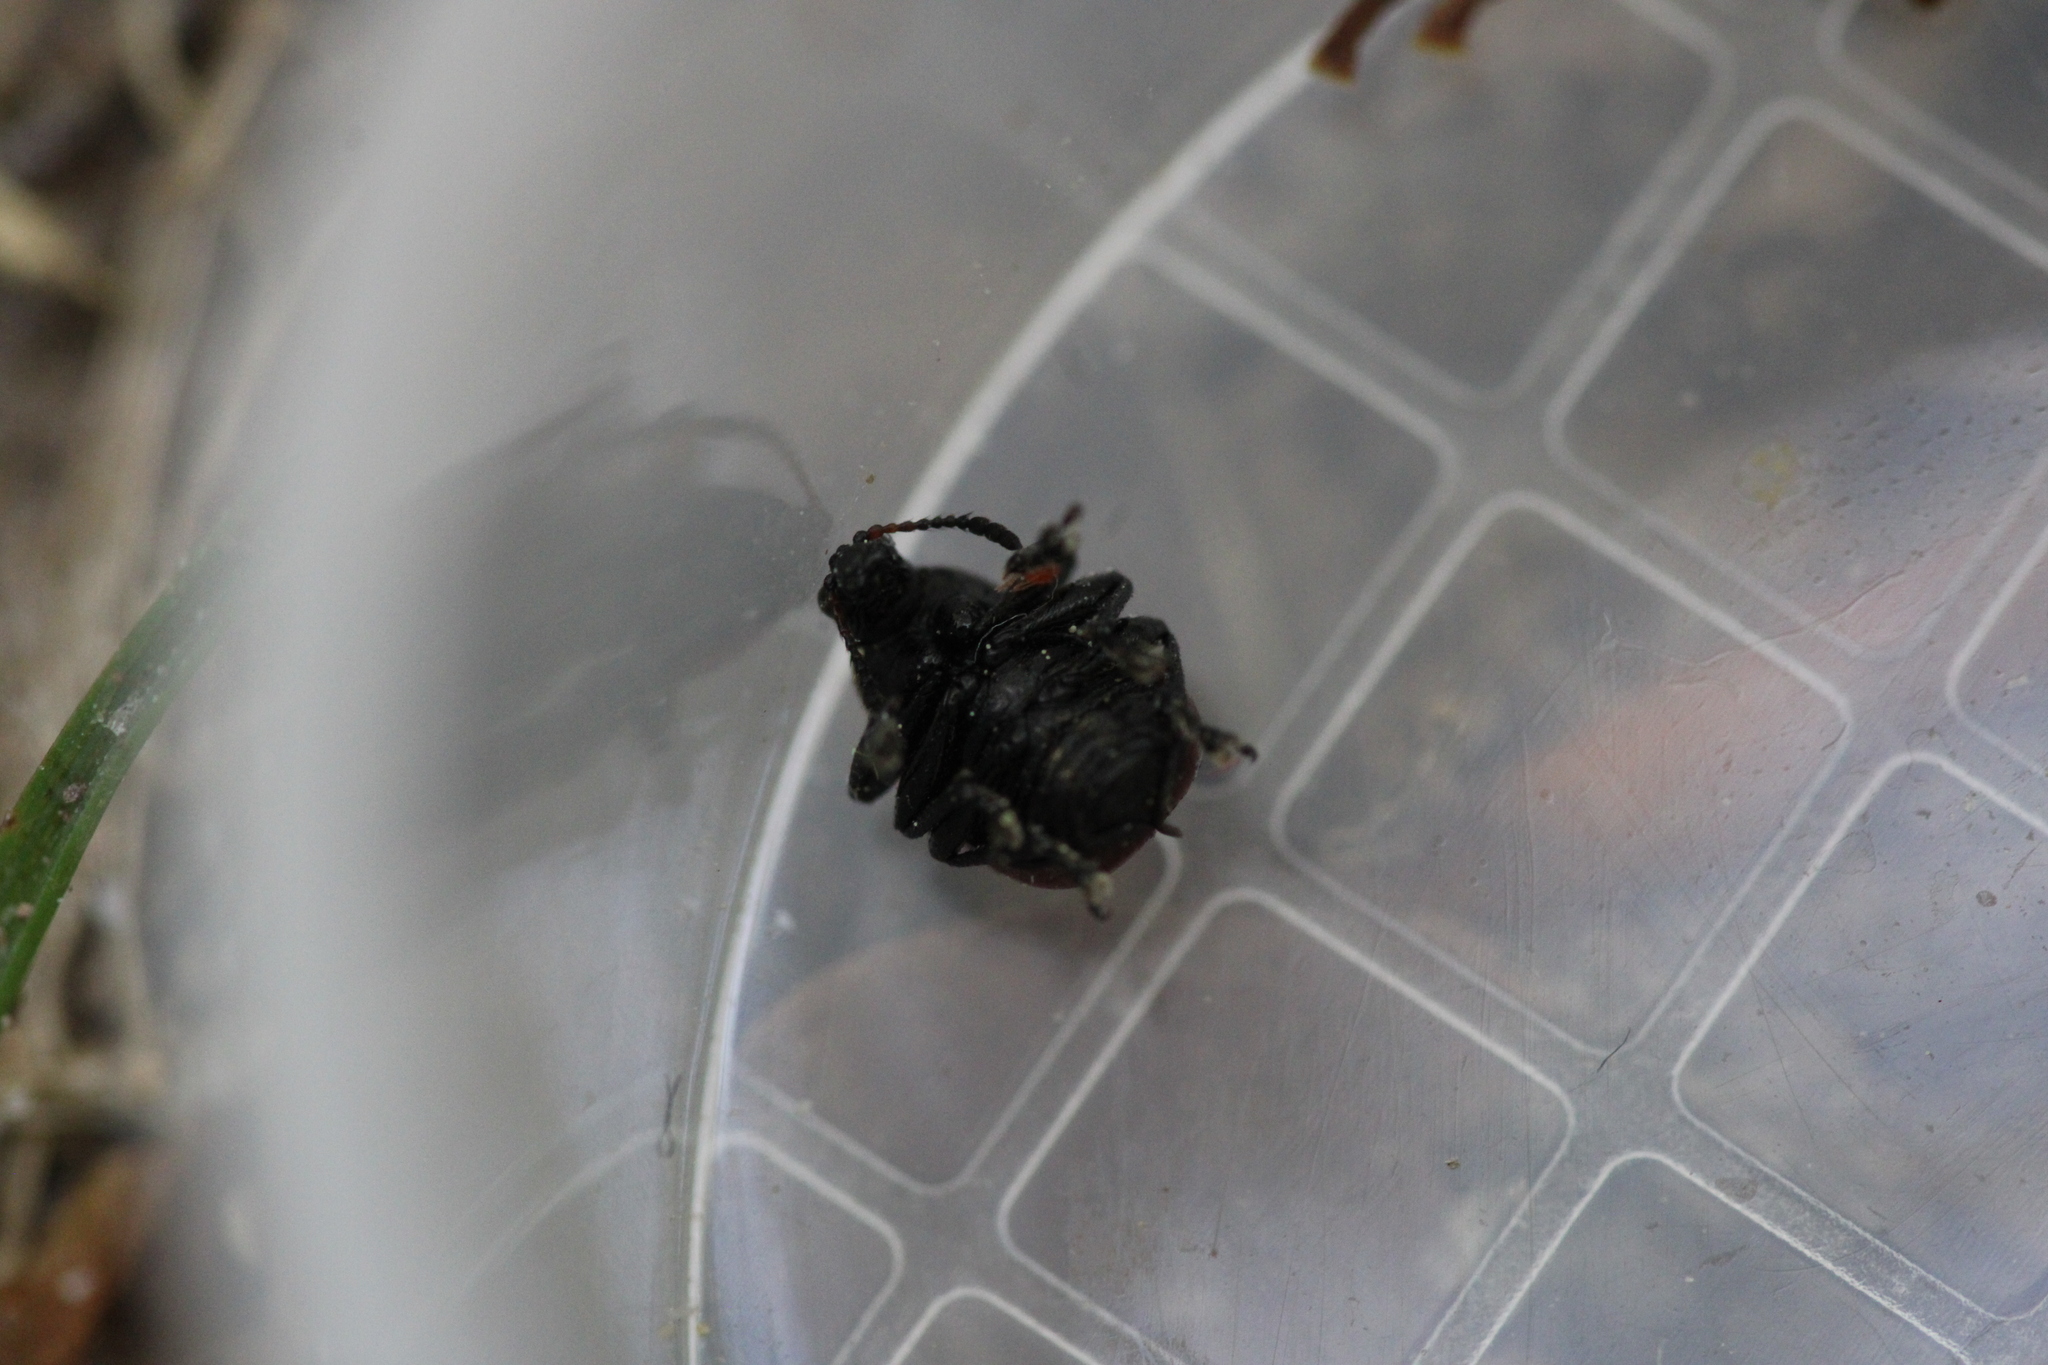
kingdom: Animalia
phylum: Arthropoda
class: Insecta
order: Coleoptera
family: Attelabidae
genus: Attelabus
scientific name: Attelabus nitens
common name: Oak leaf-roller
